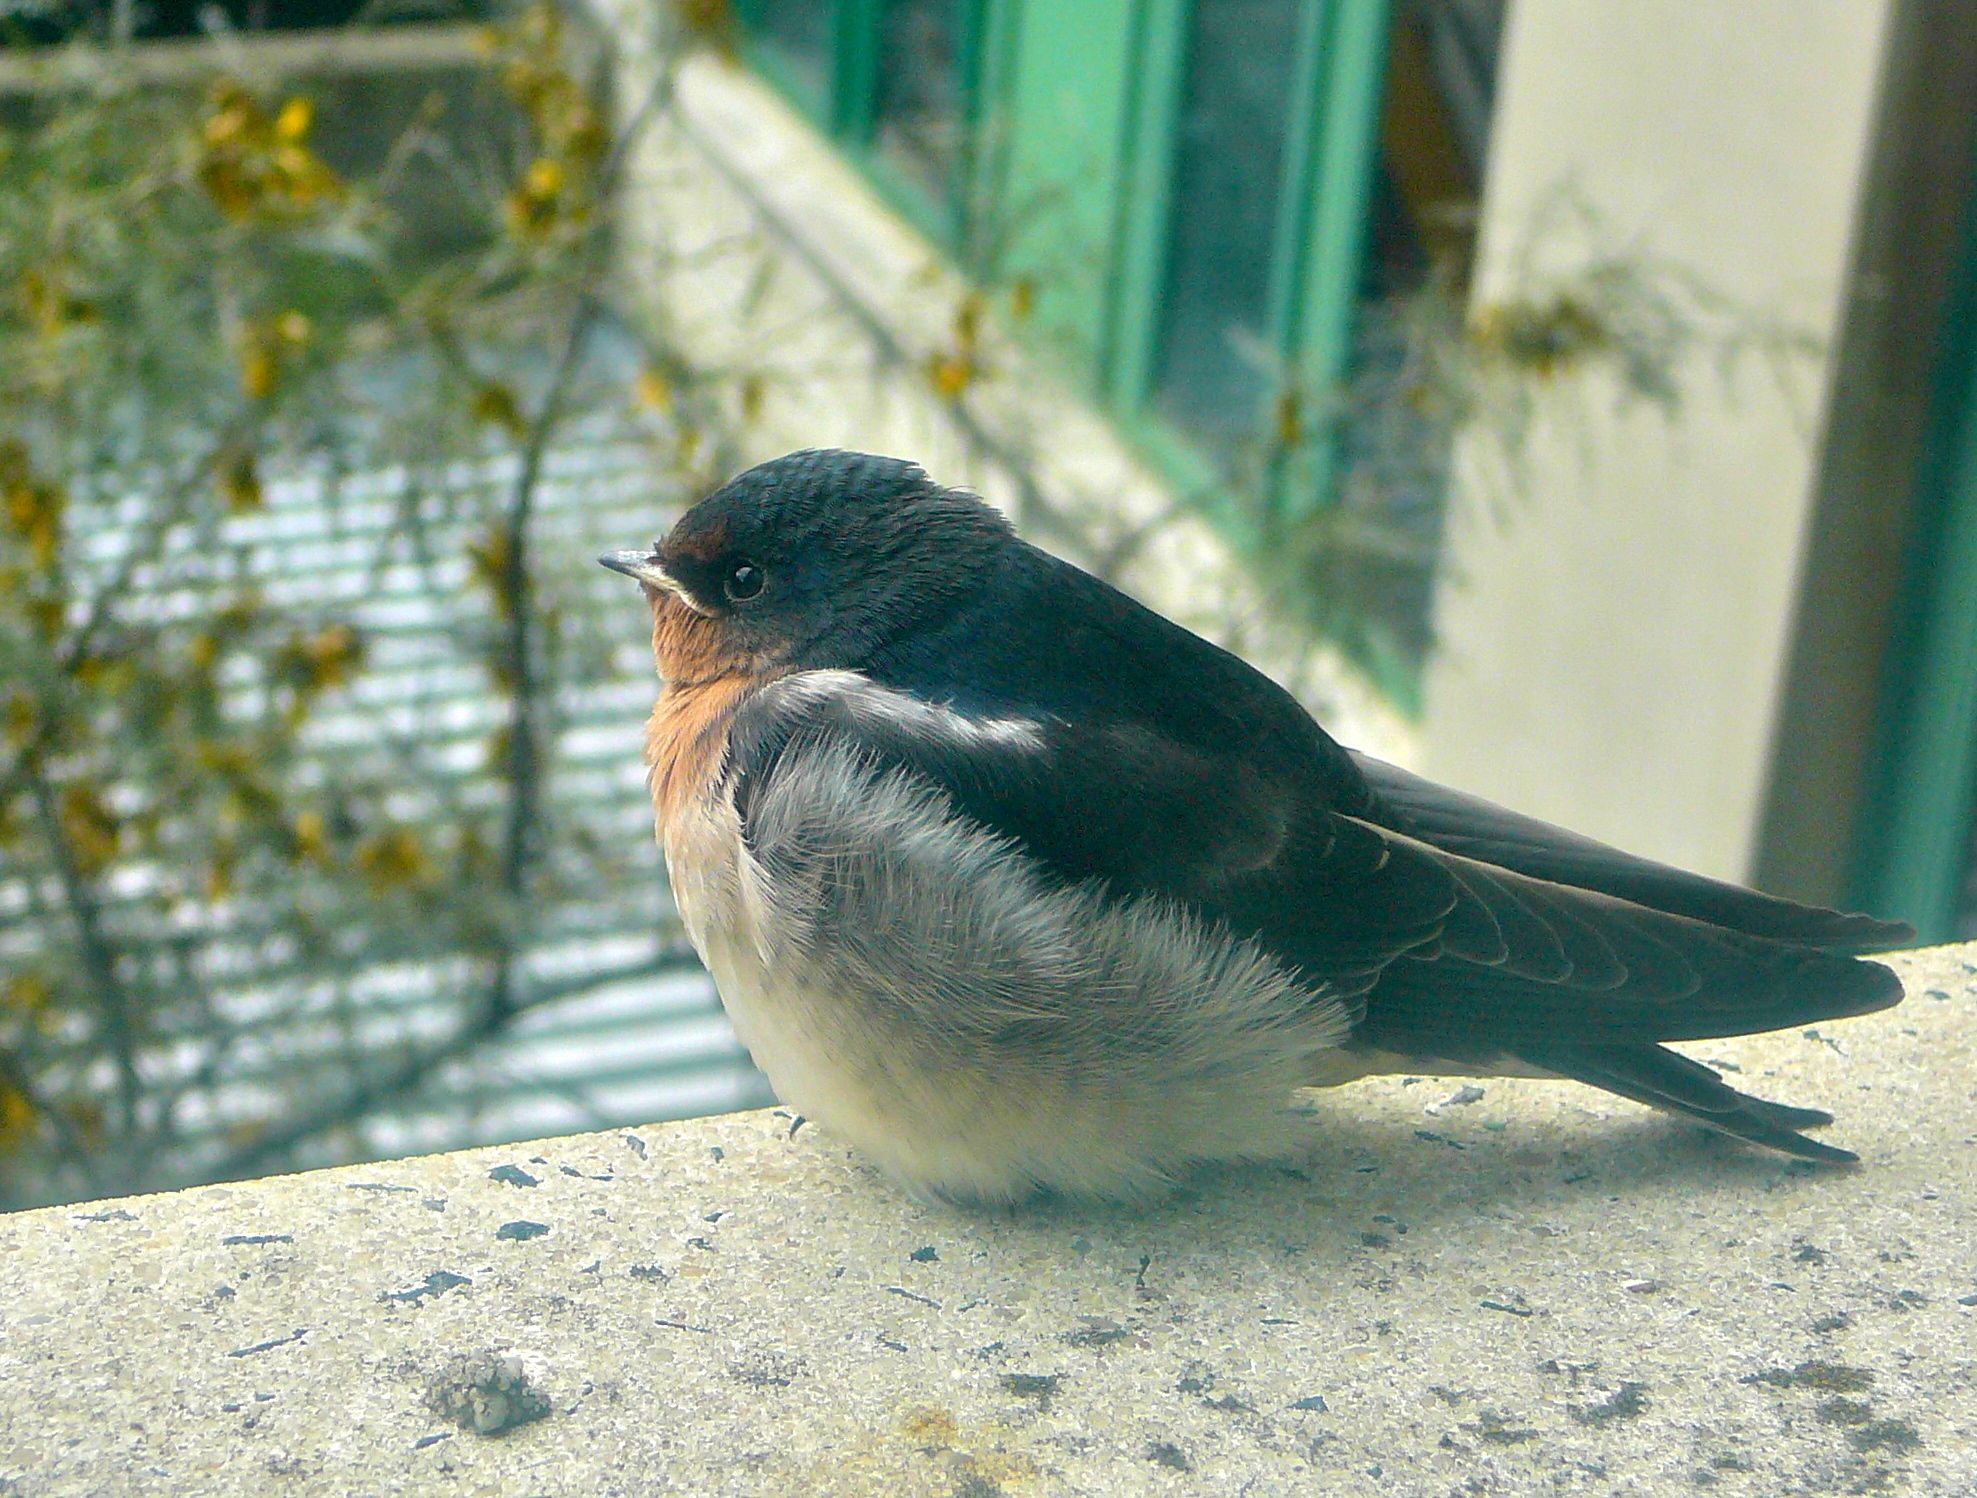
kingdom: Animalia
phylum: Chordata
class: Aves
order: Passeriformes
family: Hirundinidae
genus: Hirundo
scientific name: Hirundo neoxena
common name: Welcome swallow
